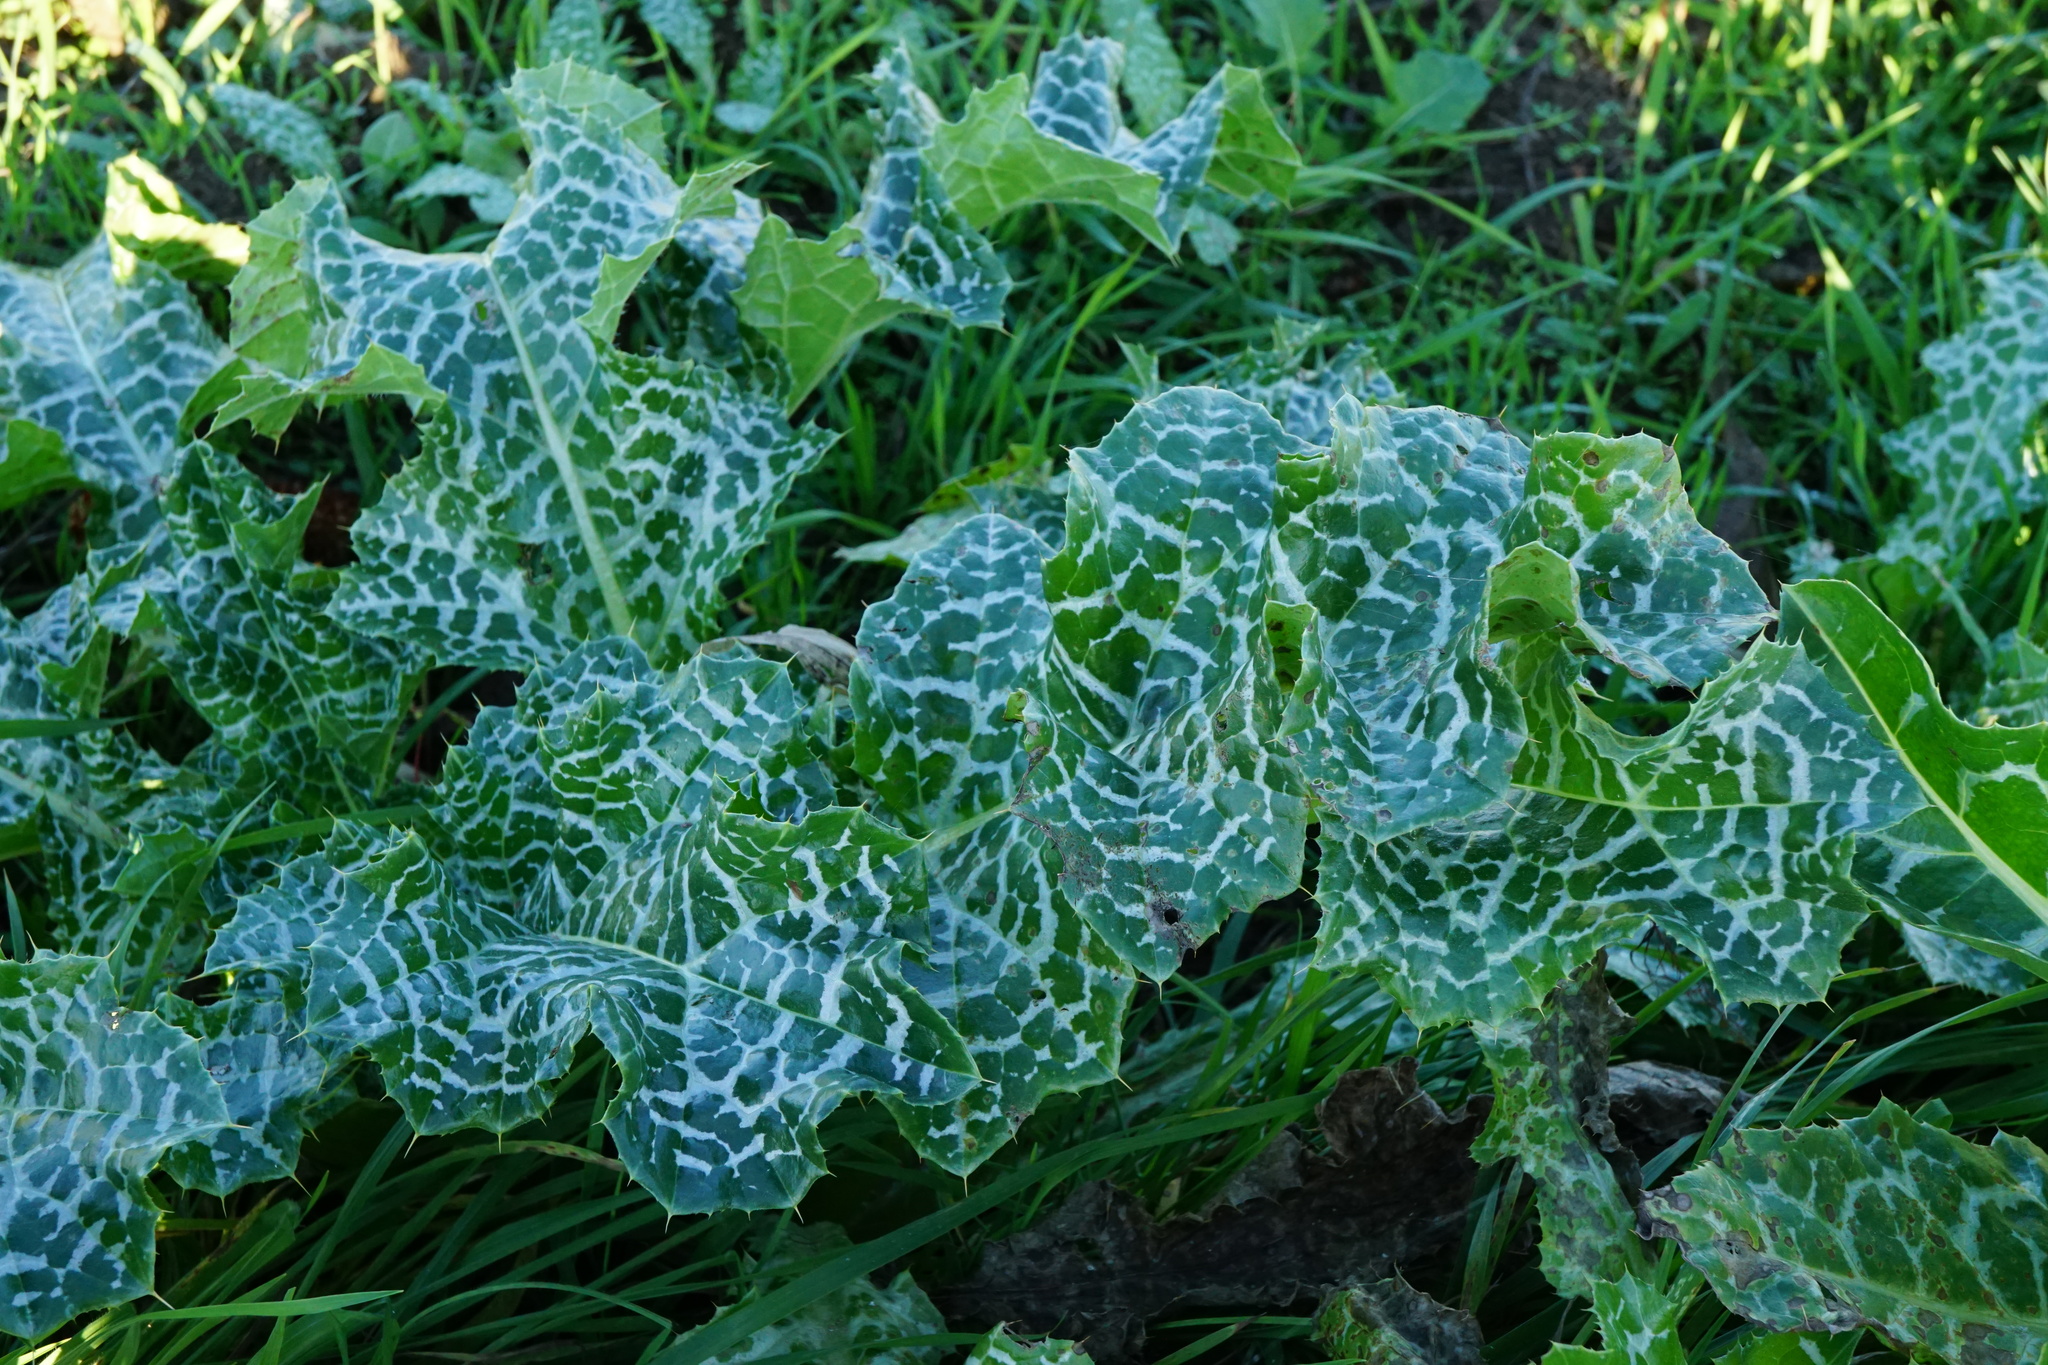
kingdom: Plantae
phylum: Tracheophyta
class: Magnoliopsida
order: Asterales
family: Asteraceae
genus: Silybum
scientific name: Silybum marianum
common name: Milk thistle
